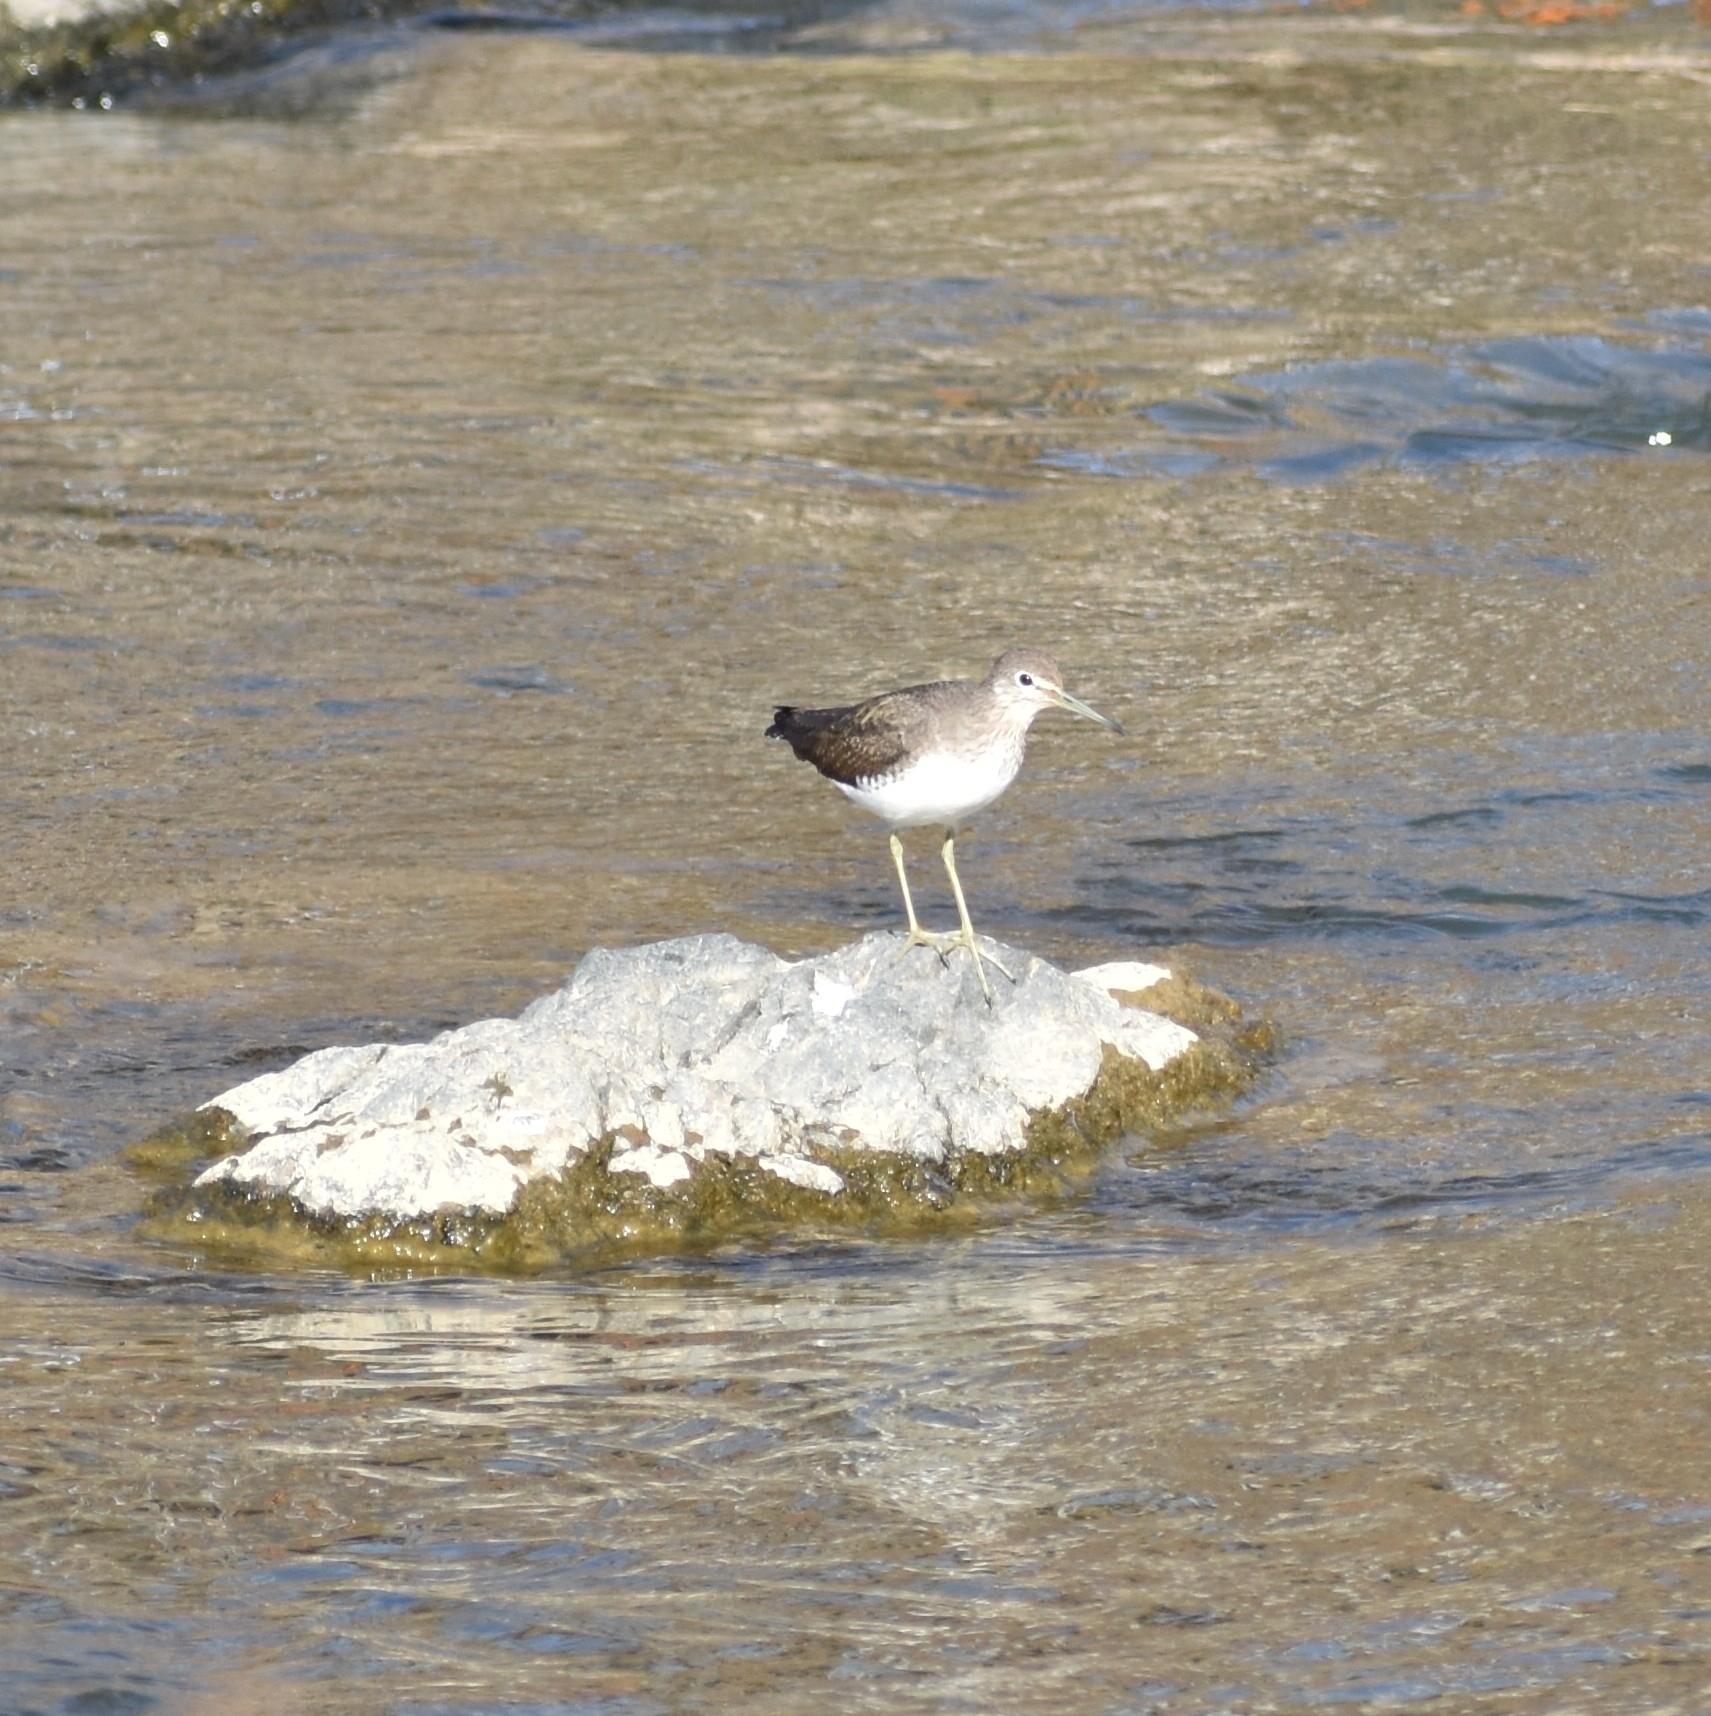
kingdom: Animalia
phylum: Chordata
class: Aves
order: Charadriiformes
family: Scolopacidae
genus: Tringa
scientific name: Tringa ochropus
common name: Green sandpiper
